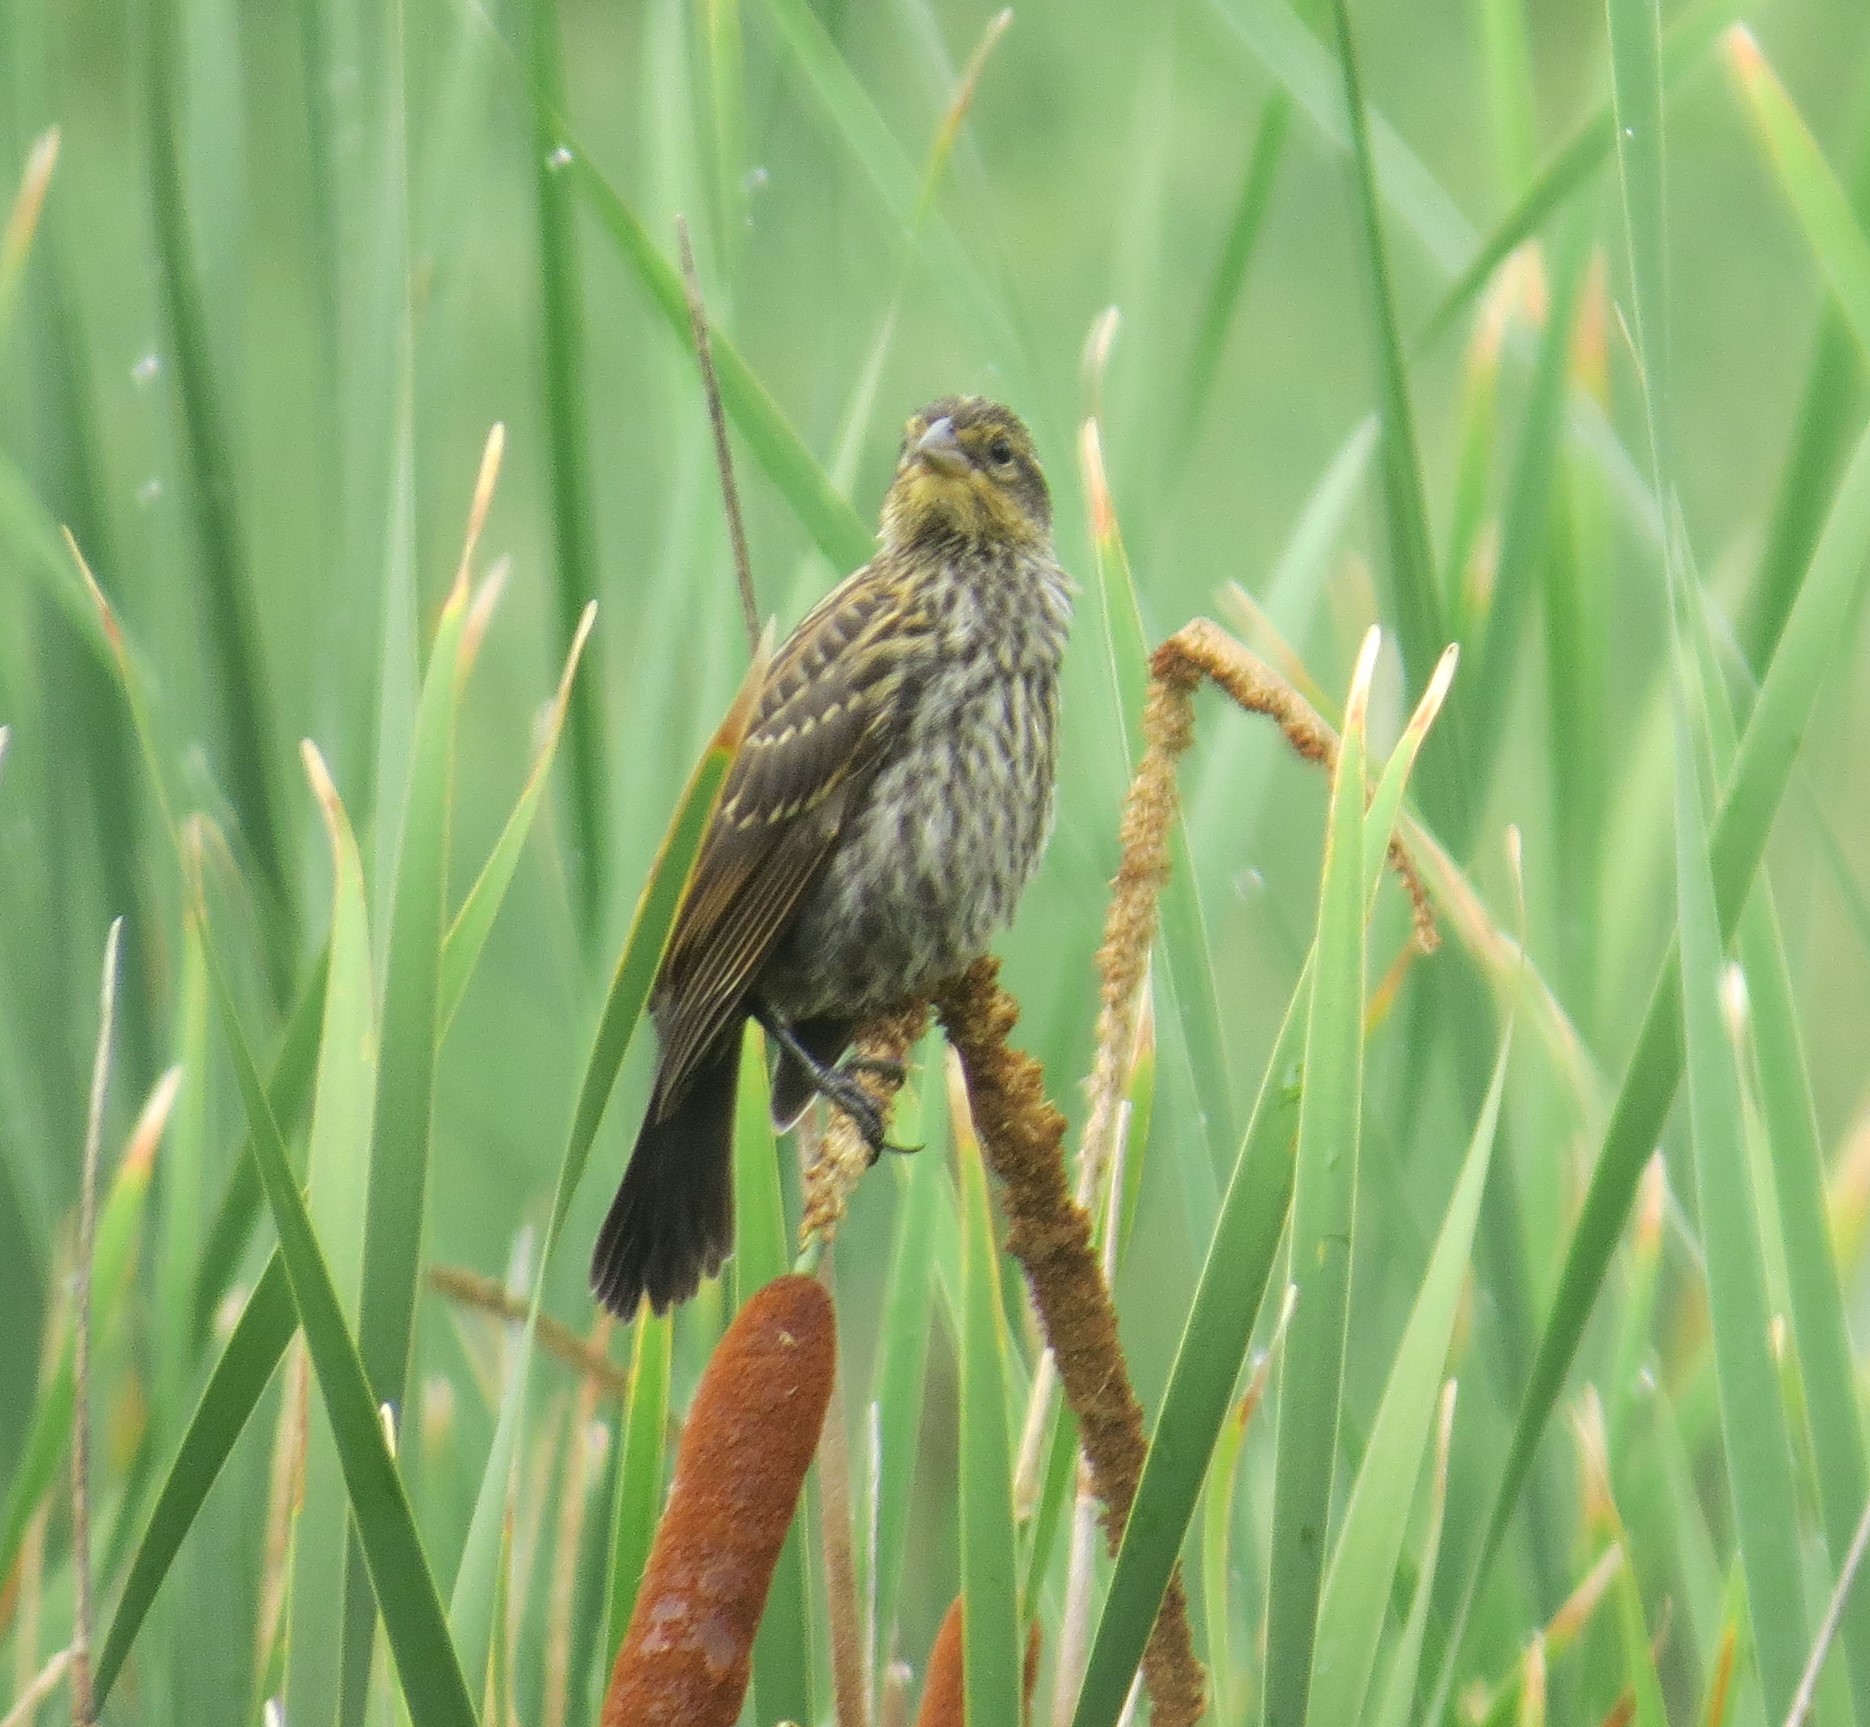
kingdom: Animalia
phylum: Chordata
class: Aves
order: Passeriformes
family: Icteridae
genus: Agelaius
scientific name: Agelaius phoeniceus
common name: Red-winged blackbird
